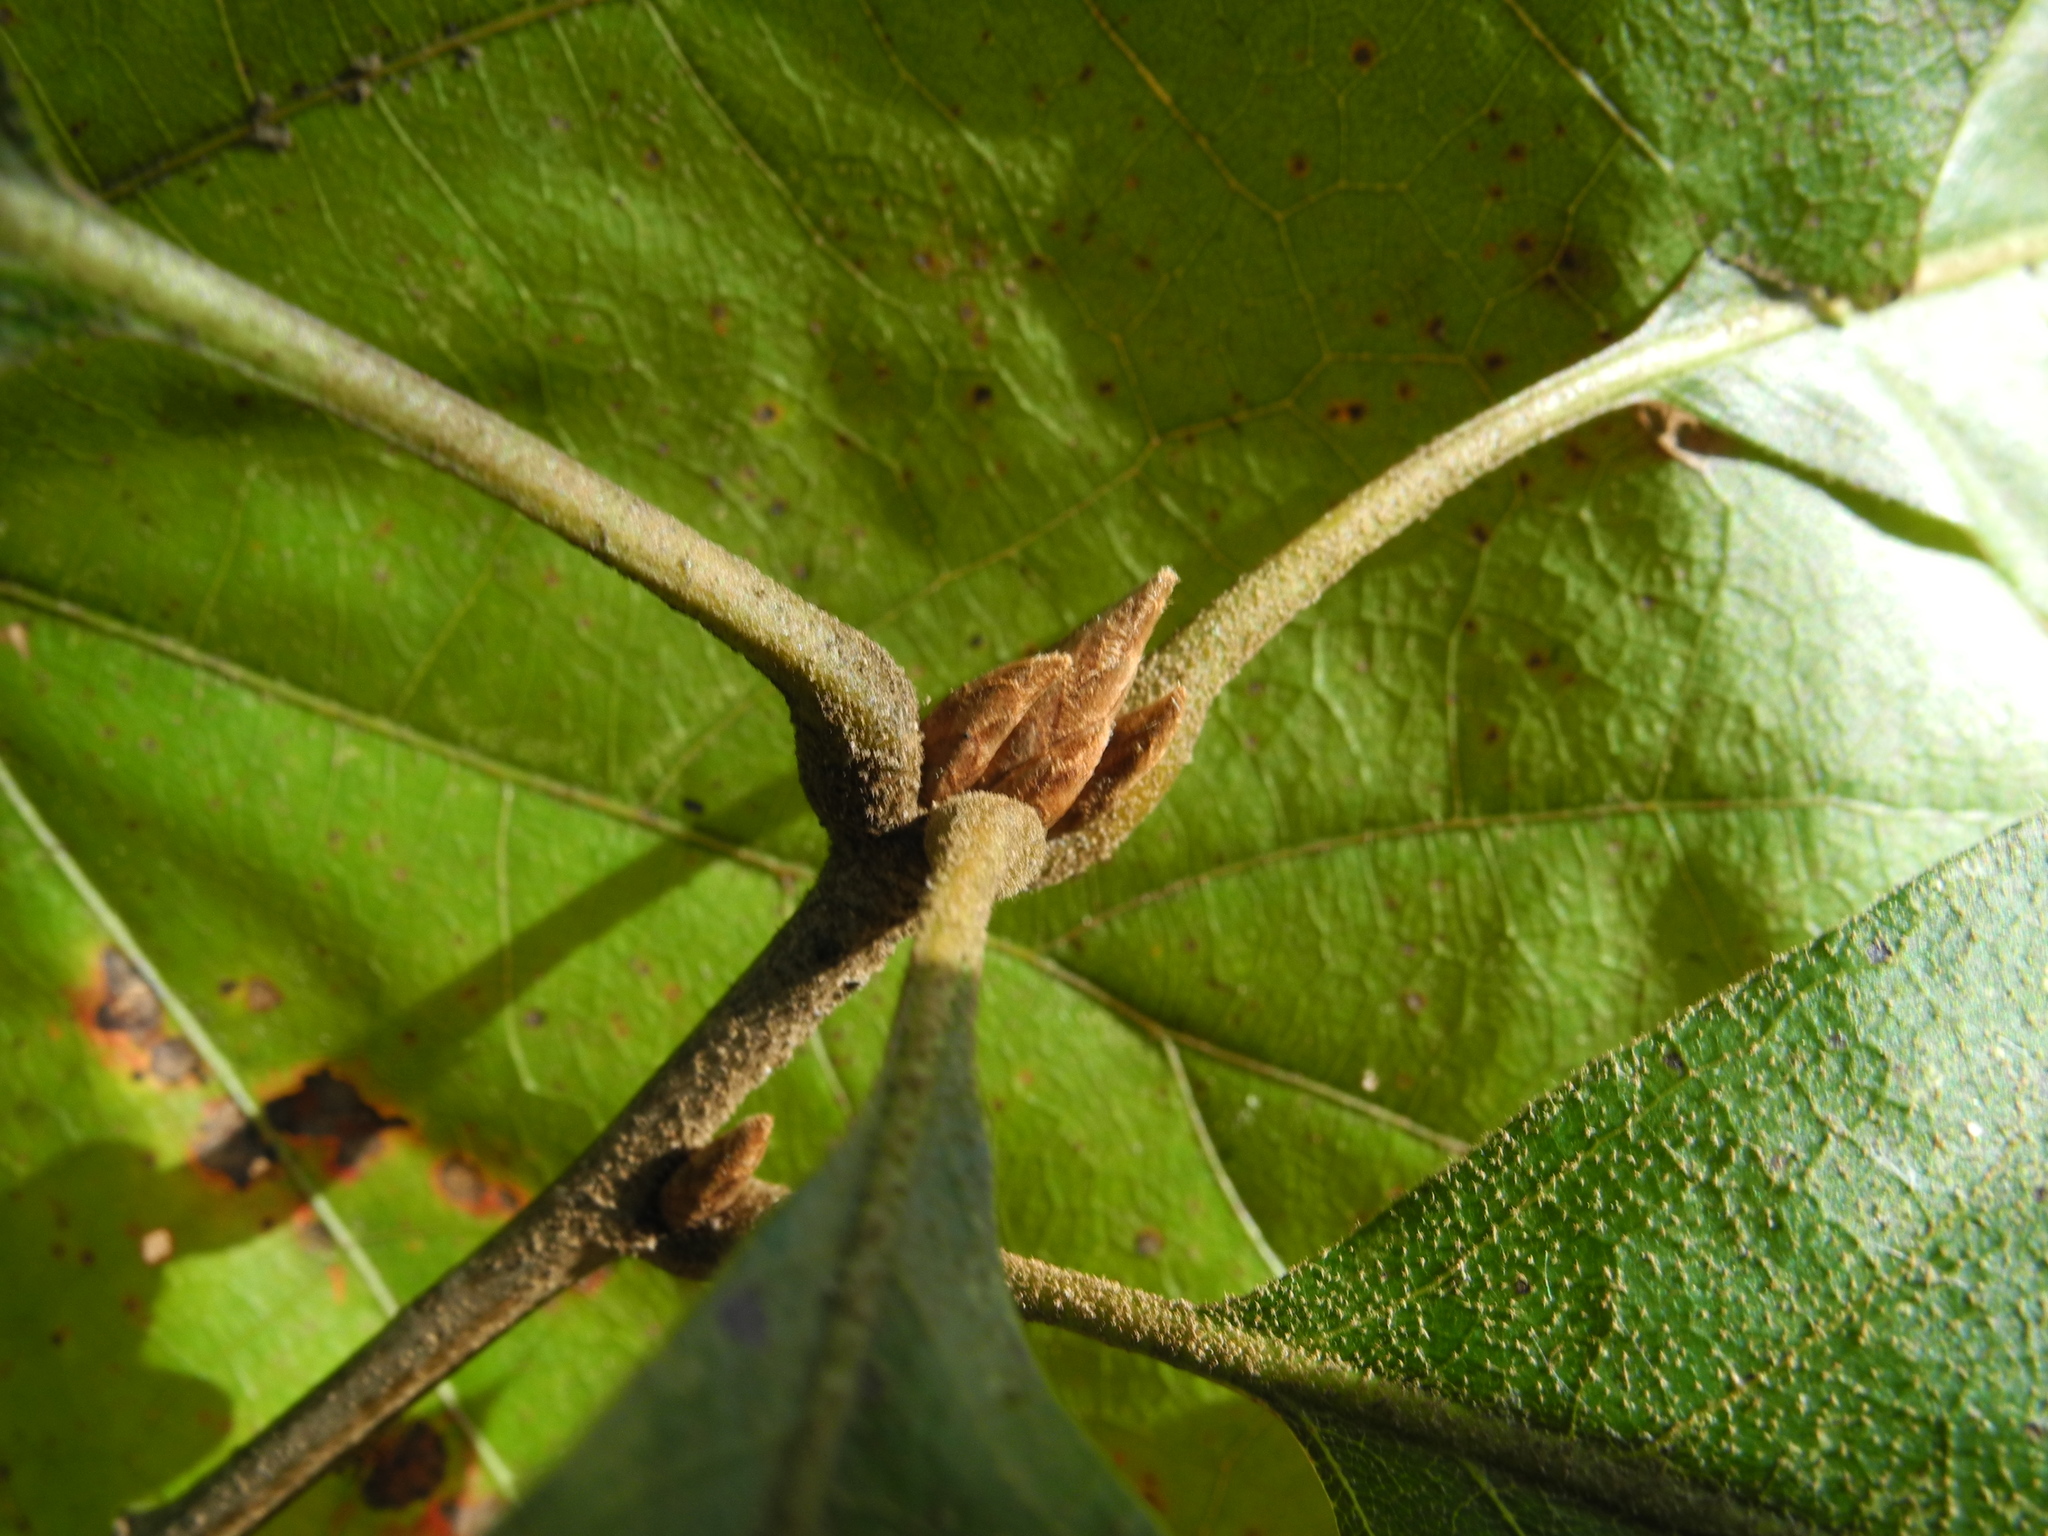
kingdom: Plantae
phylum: Tracheophyta
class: Magnoliopsida
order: Fagales
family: Fagaceae
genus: Quercus
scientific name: Quercus velutina
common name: Black oak
